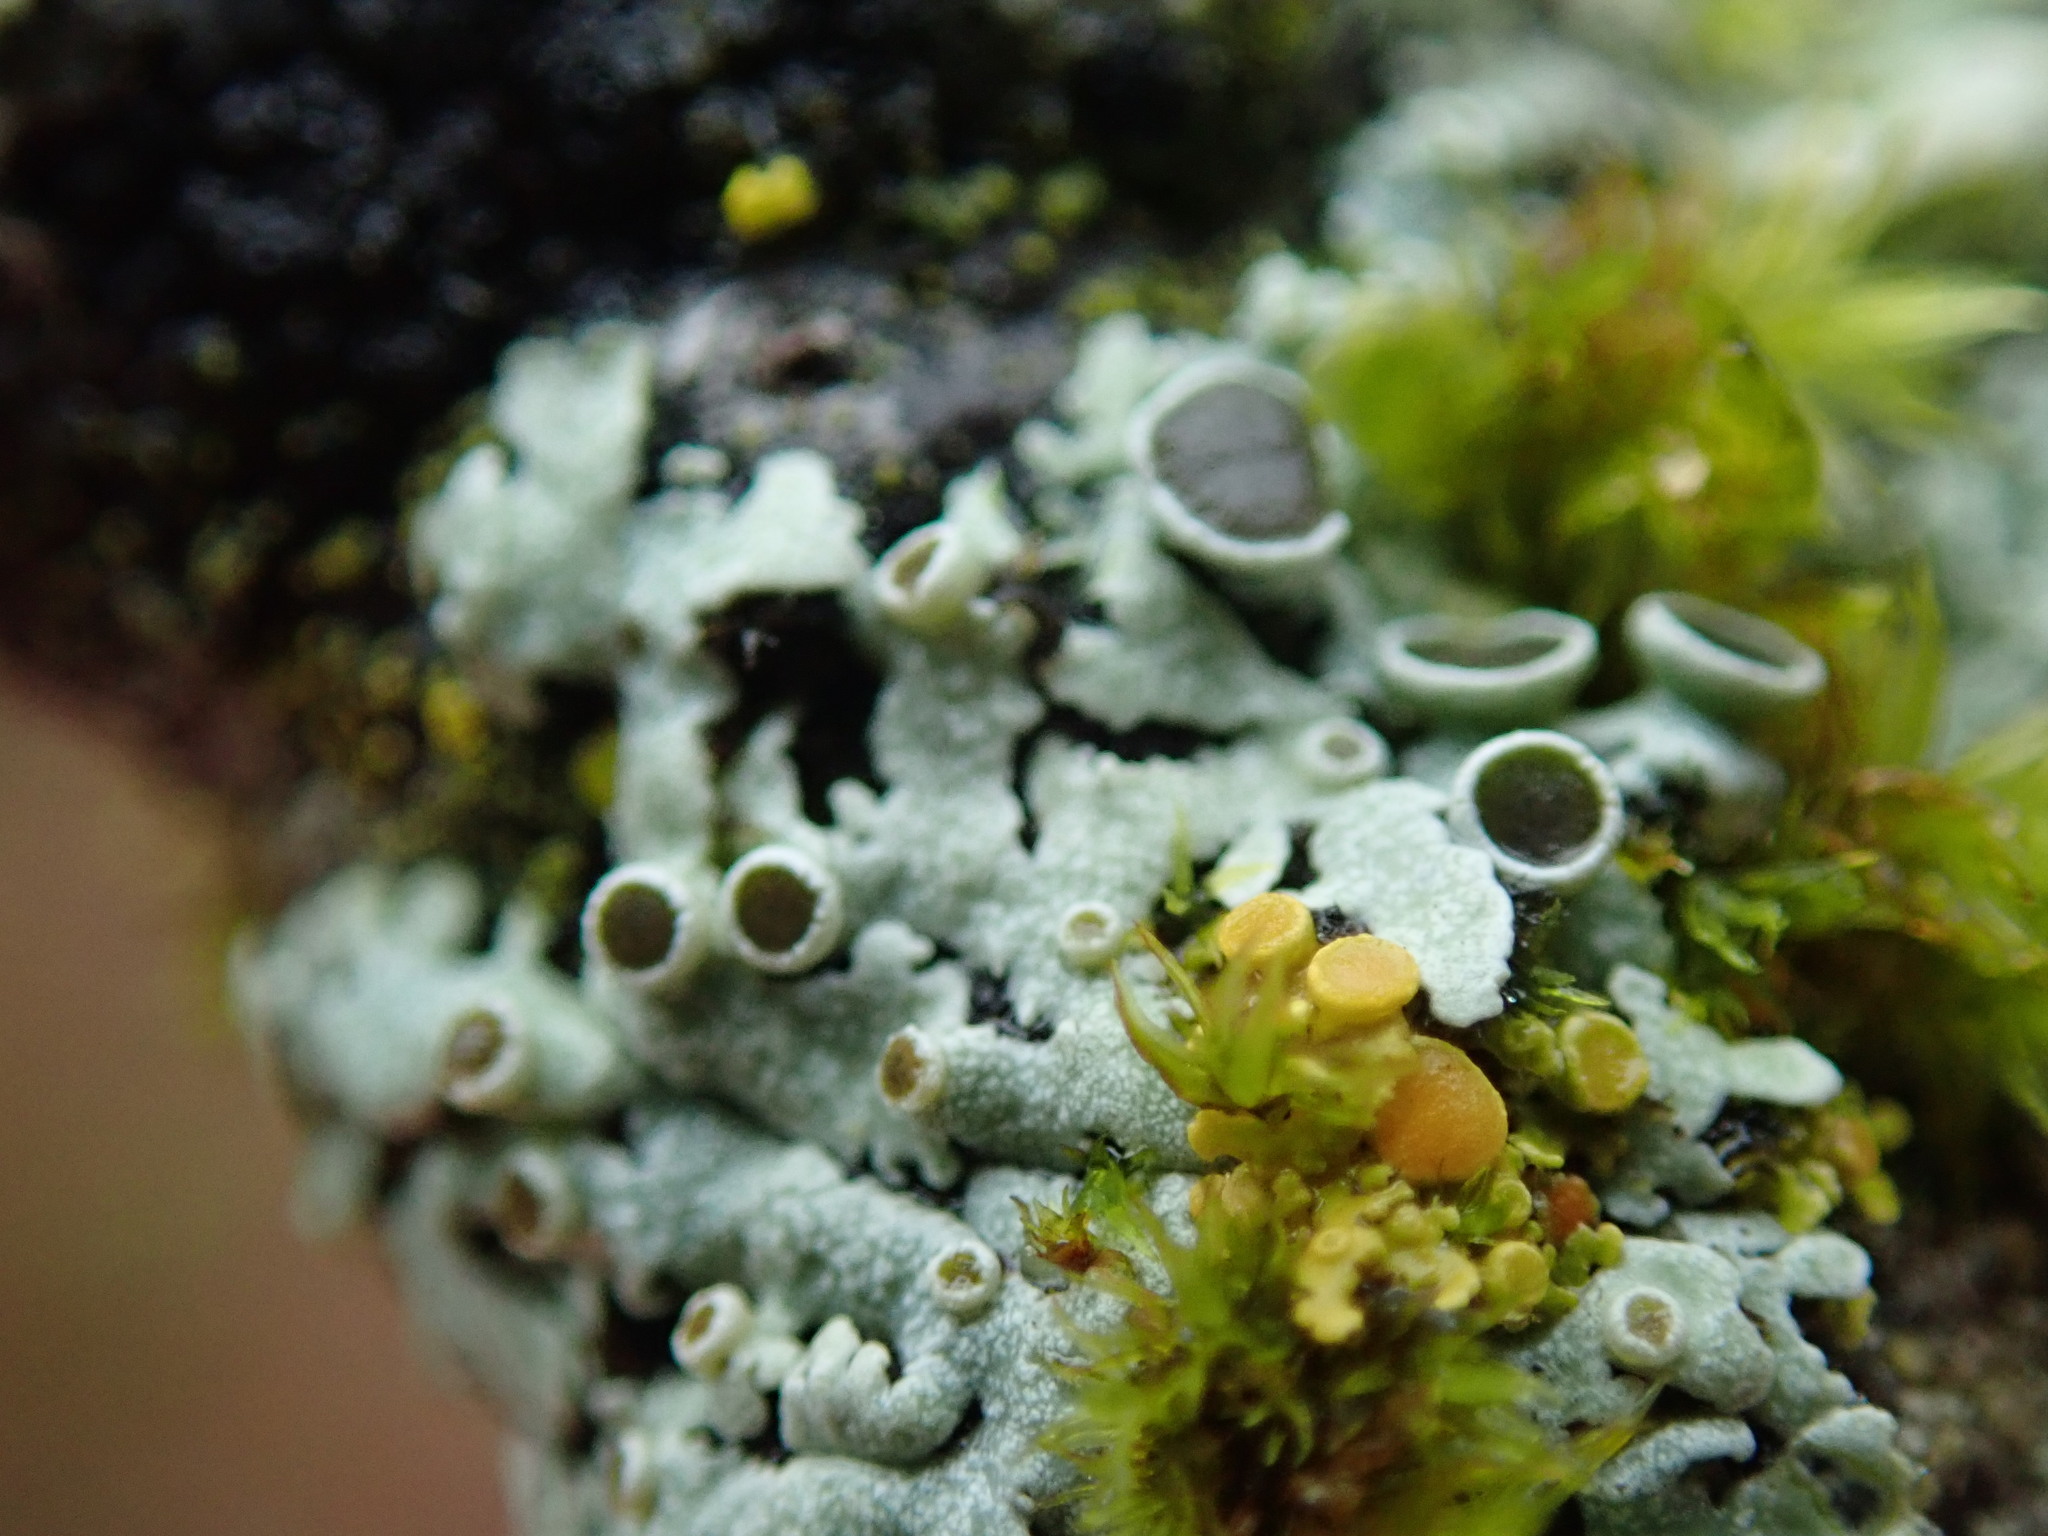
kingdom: Fungi
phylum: Ascomycota
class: Lecanoromycetes
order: Caliciales
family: Physciaceae
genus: Physcia
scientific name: Physcia aipolia
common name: Hoary rosette lichen
